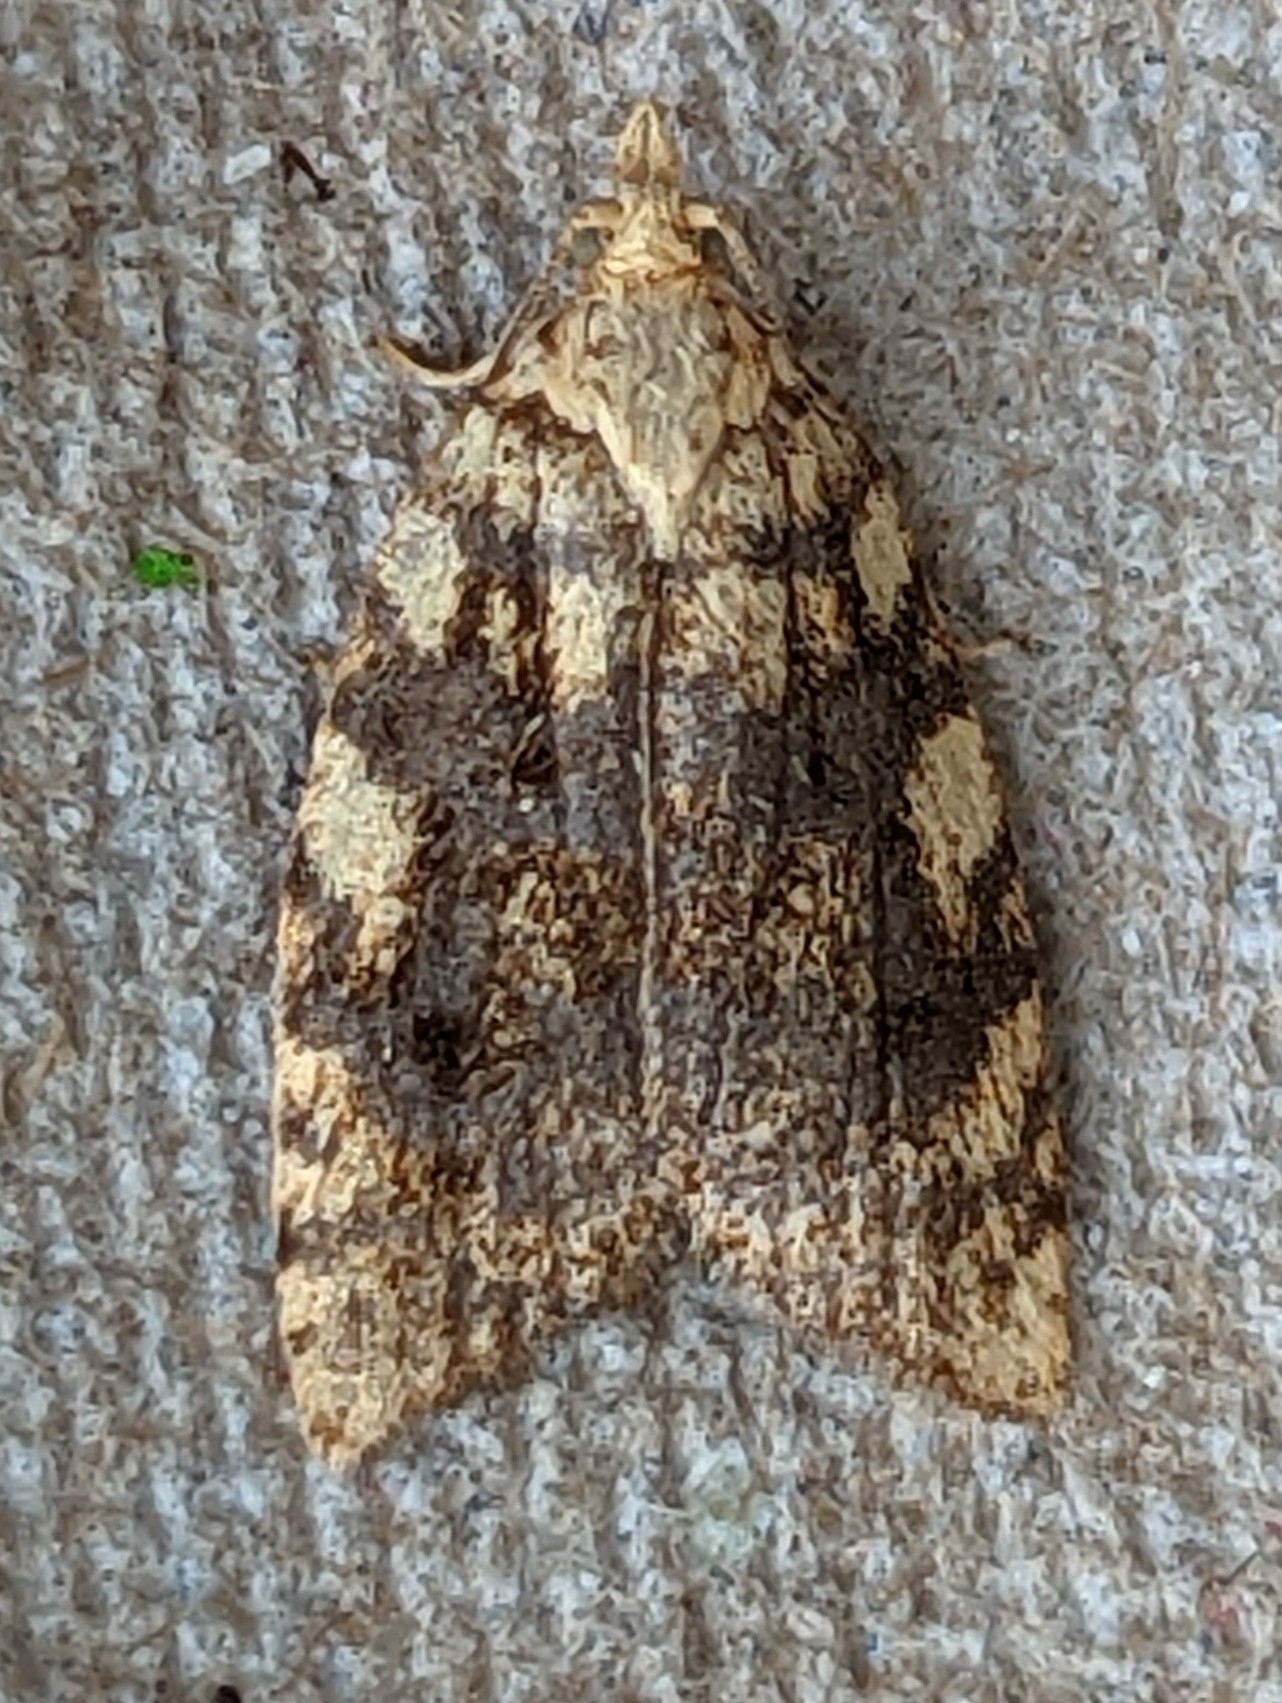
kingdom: Animalia
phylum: Arthropoda
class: Insecta
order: Lepidoptera
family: Tortricidae
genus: Aleimma
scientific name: Aleimma loeflingiana
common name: Yellow oak button
